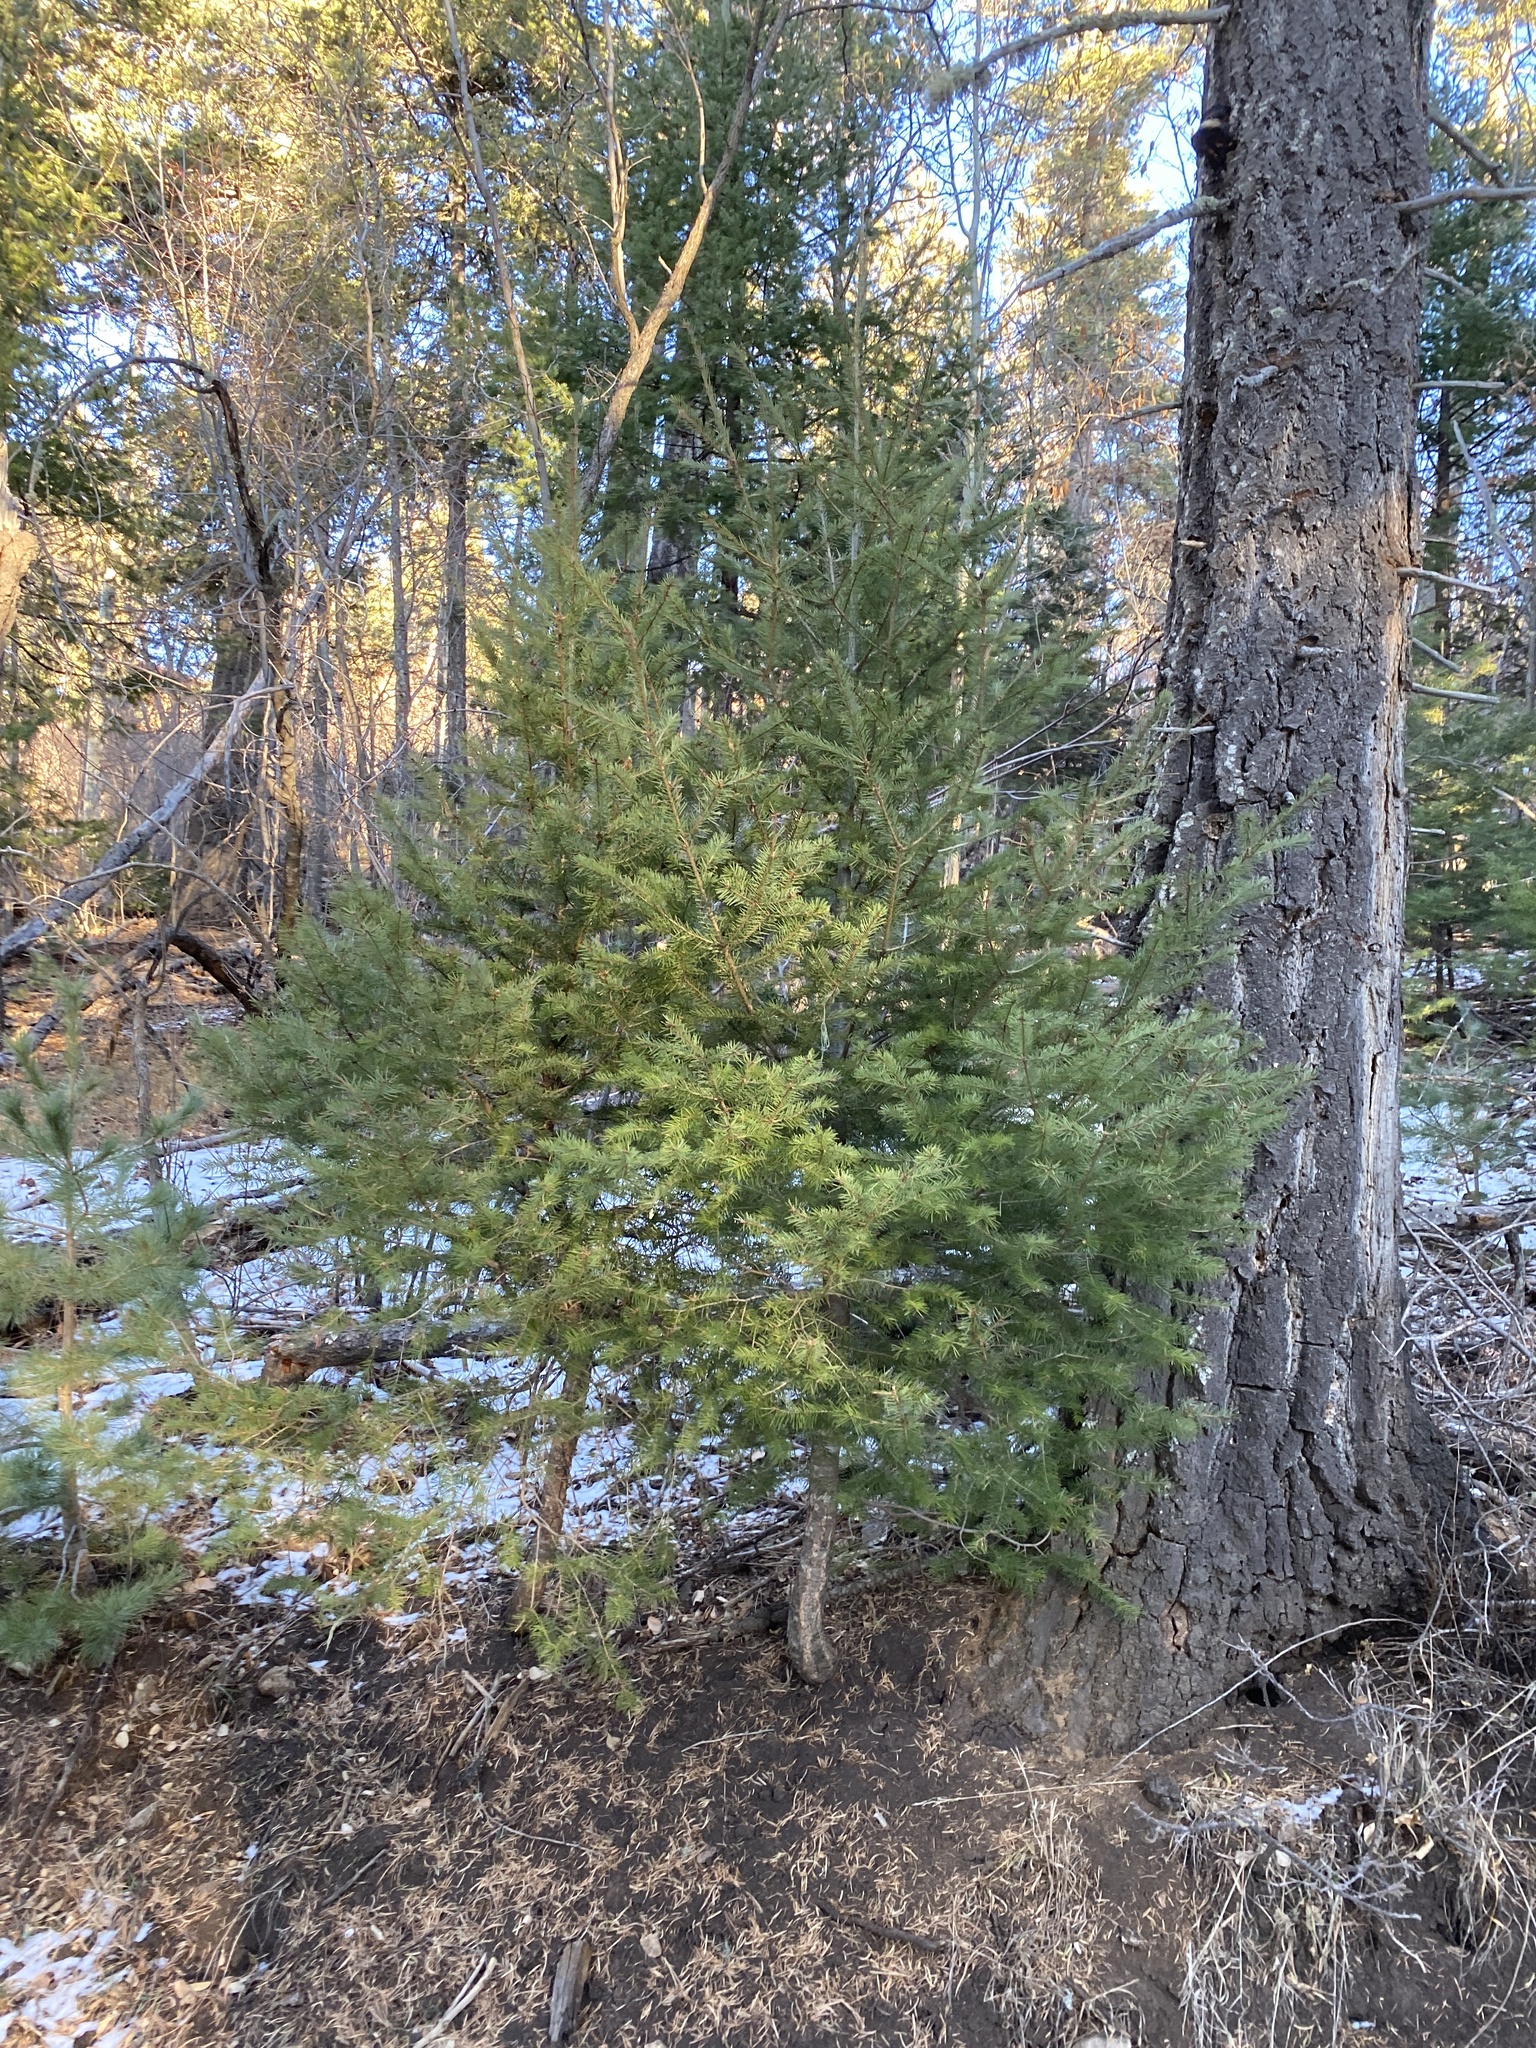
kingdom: Plantae
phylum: Tracheophyta
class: Pinopsida
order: Pinales
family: Pinaceae
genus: Pseudotsuga
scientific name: Pseudotsuga menziesii
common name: Douglas fir
